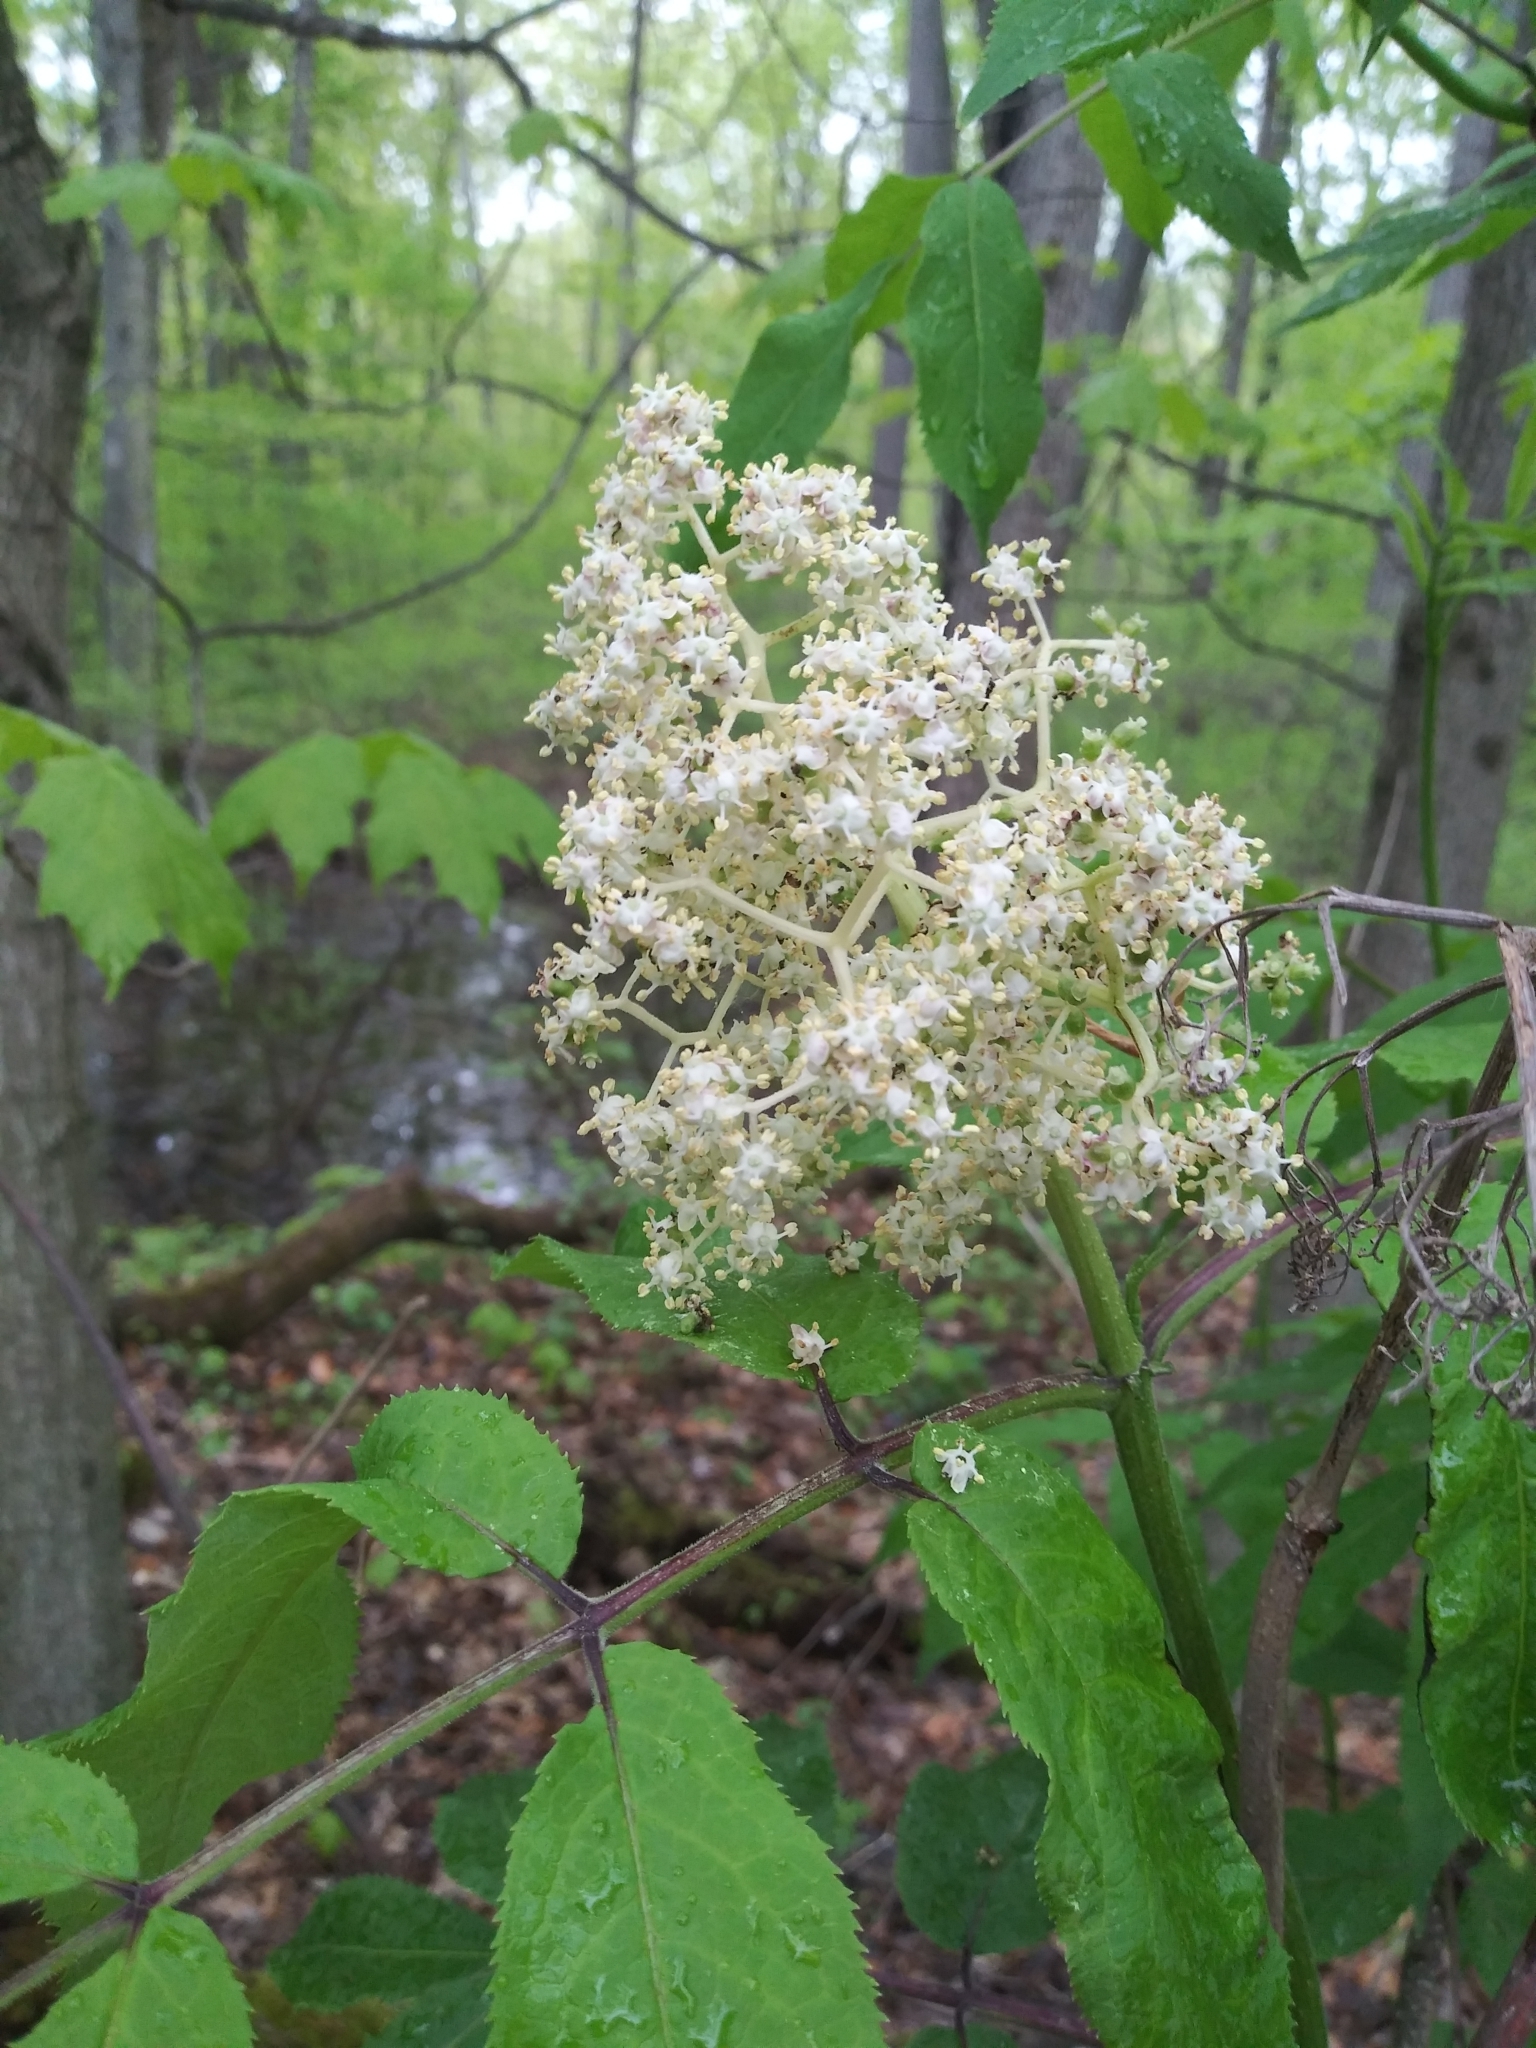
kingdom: Plantae
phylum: Tracheophyta
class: Magnoliopsida
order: Dipsacales
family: Viburnaceae
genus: Sambucus
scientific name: Sambucus racemosa
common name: Red-berried elder
